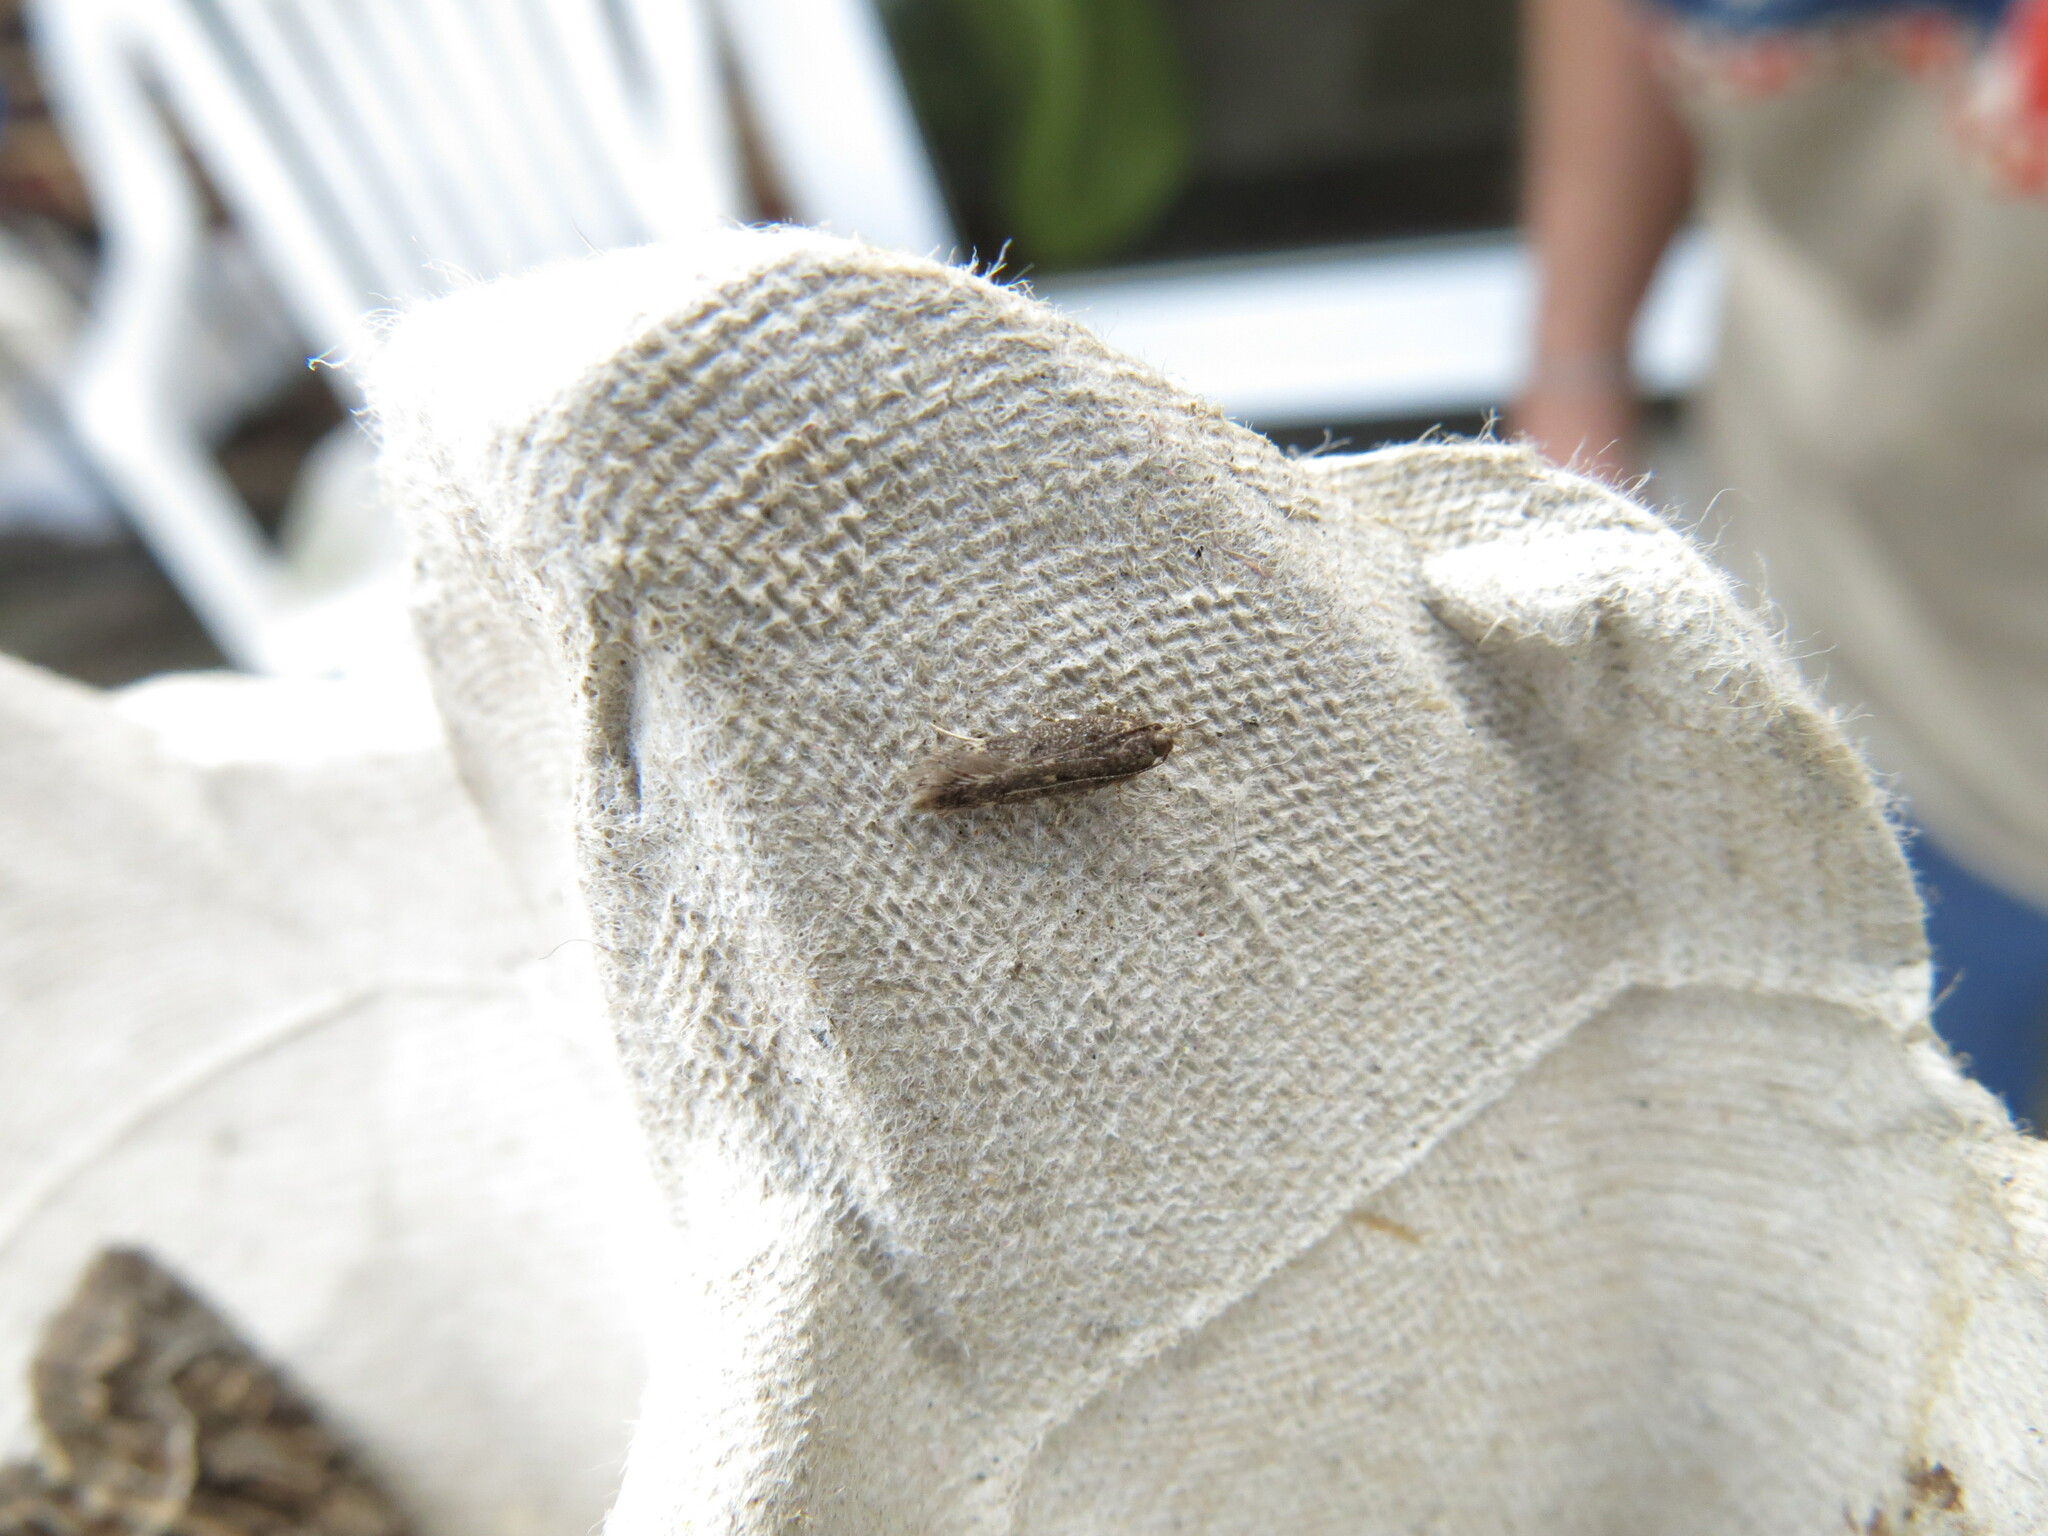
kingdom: Animalia
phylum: Arthropoda
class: Insecta
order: Lepidoptera
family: Gelechiidae
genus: Bryotropha
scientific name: Bryotropha affinis
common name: Dark groundling
